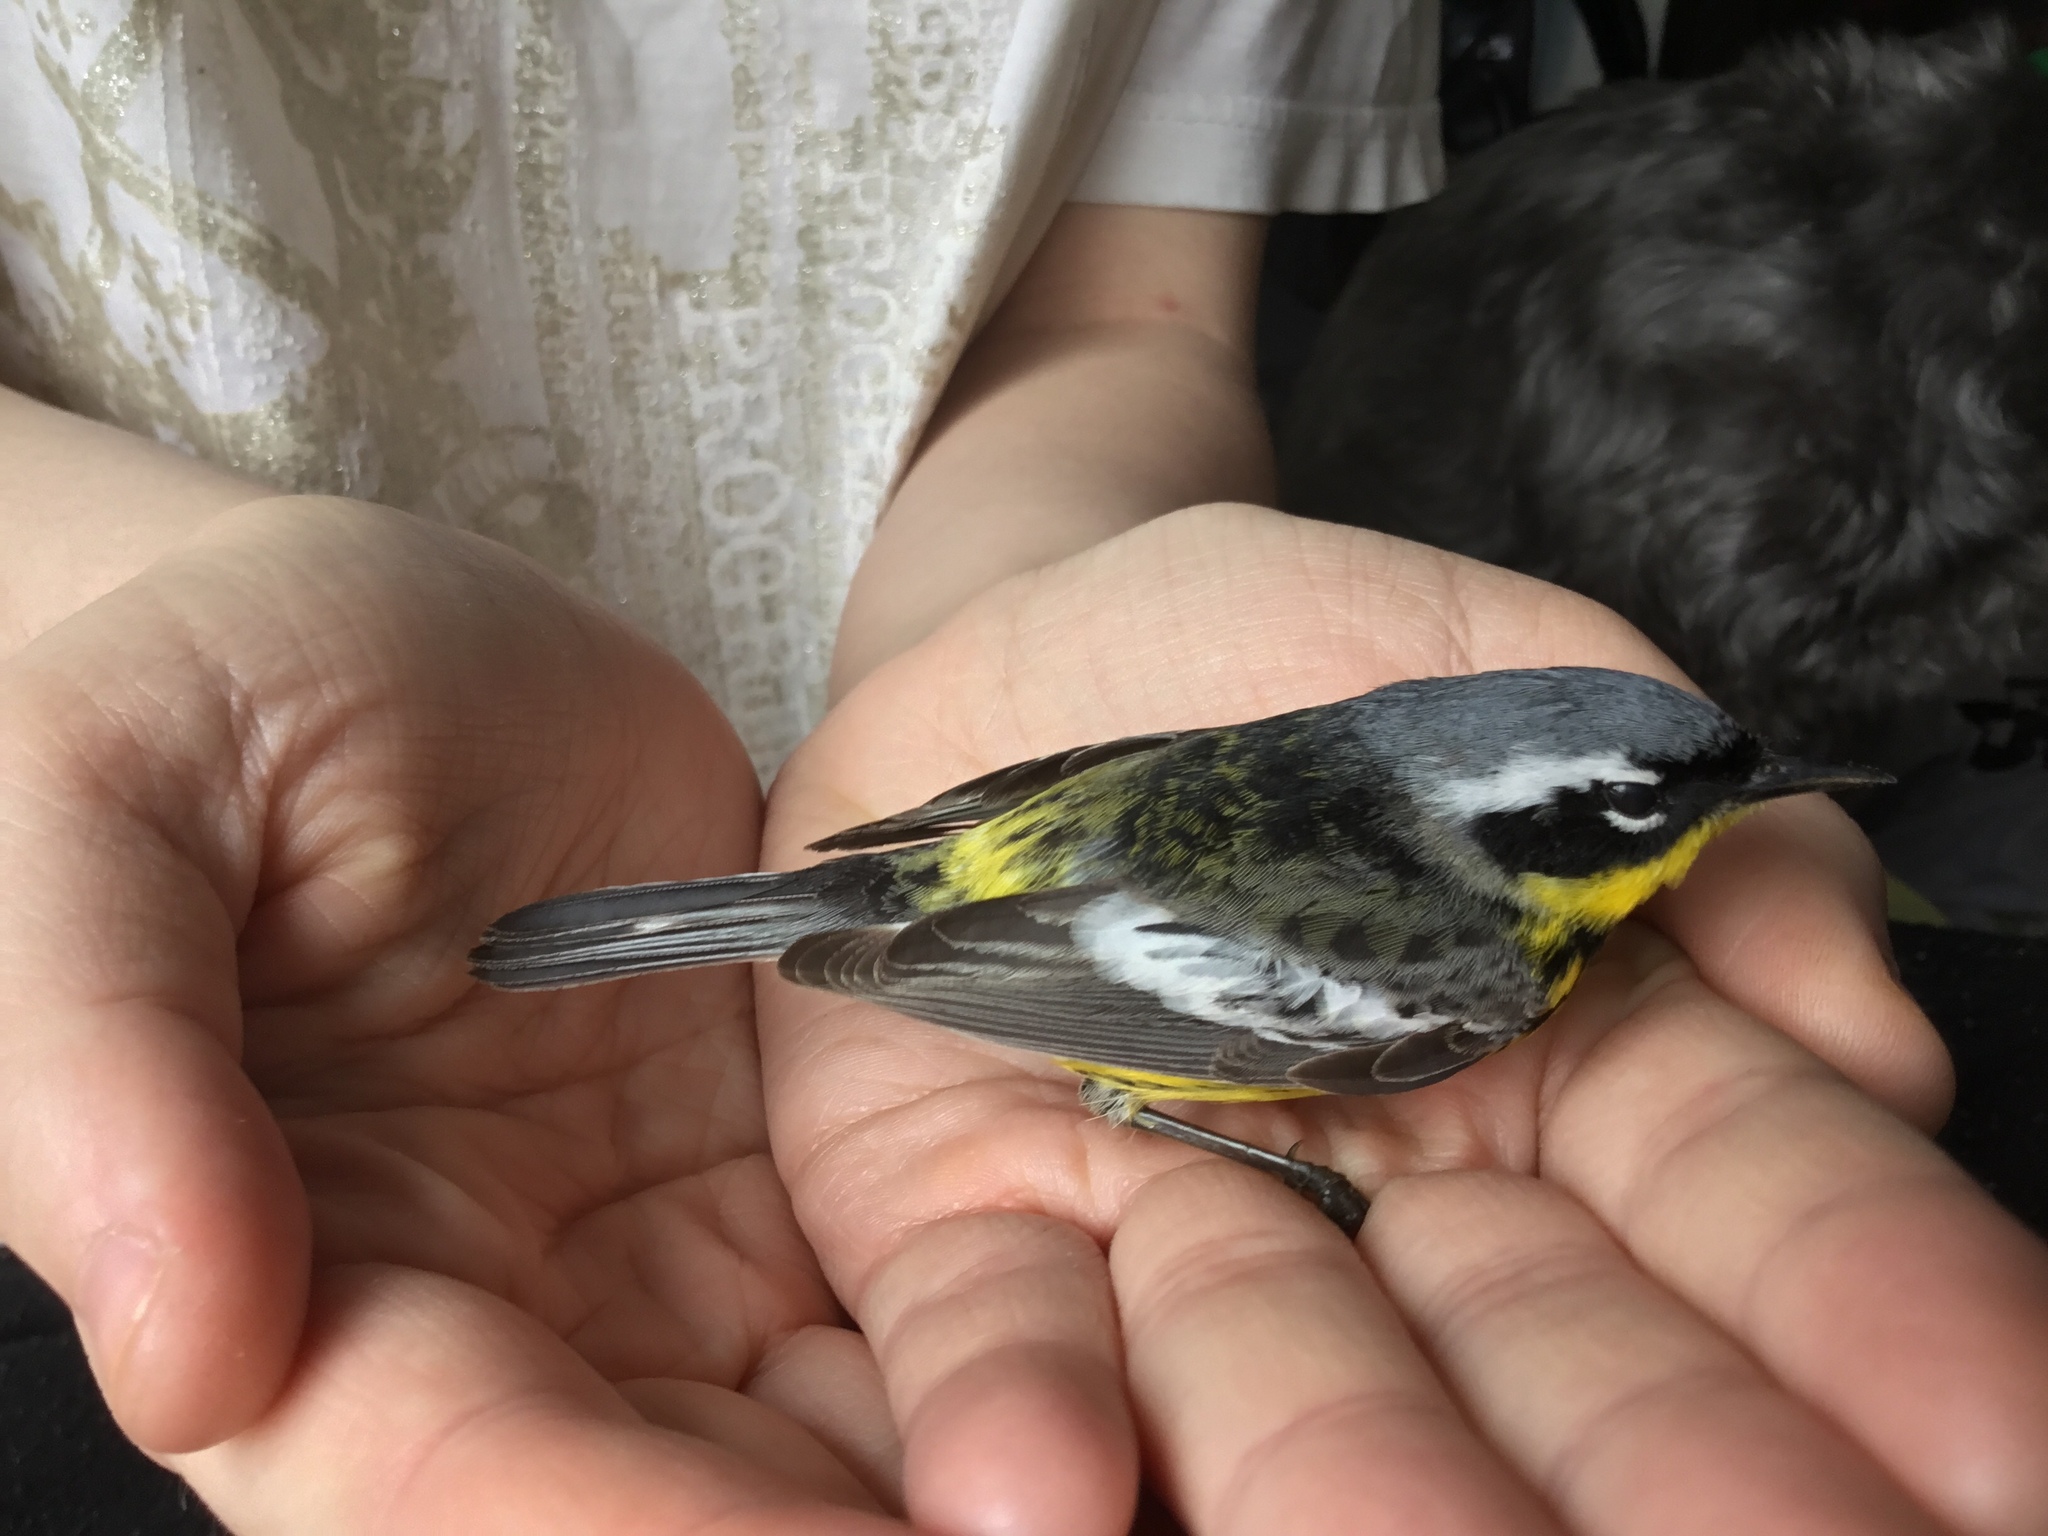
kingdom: Animalia
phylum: Chordata
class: Aves
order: Passeriformes
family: Parulidae
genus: Setophaga
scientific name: Setophaga magnolia
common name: Magnolia warbler
